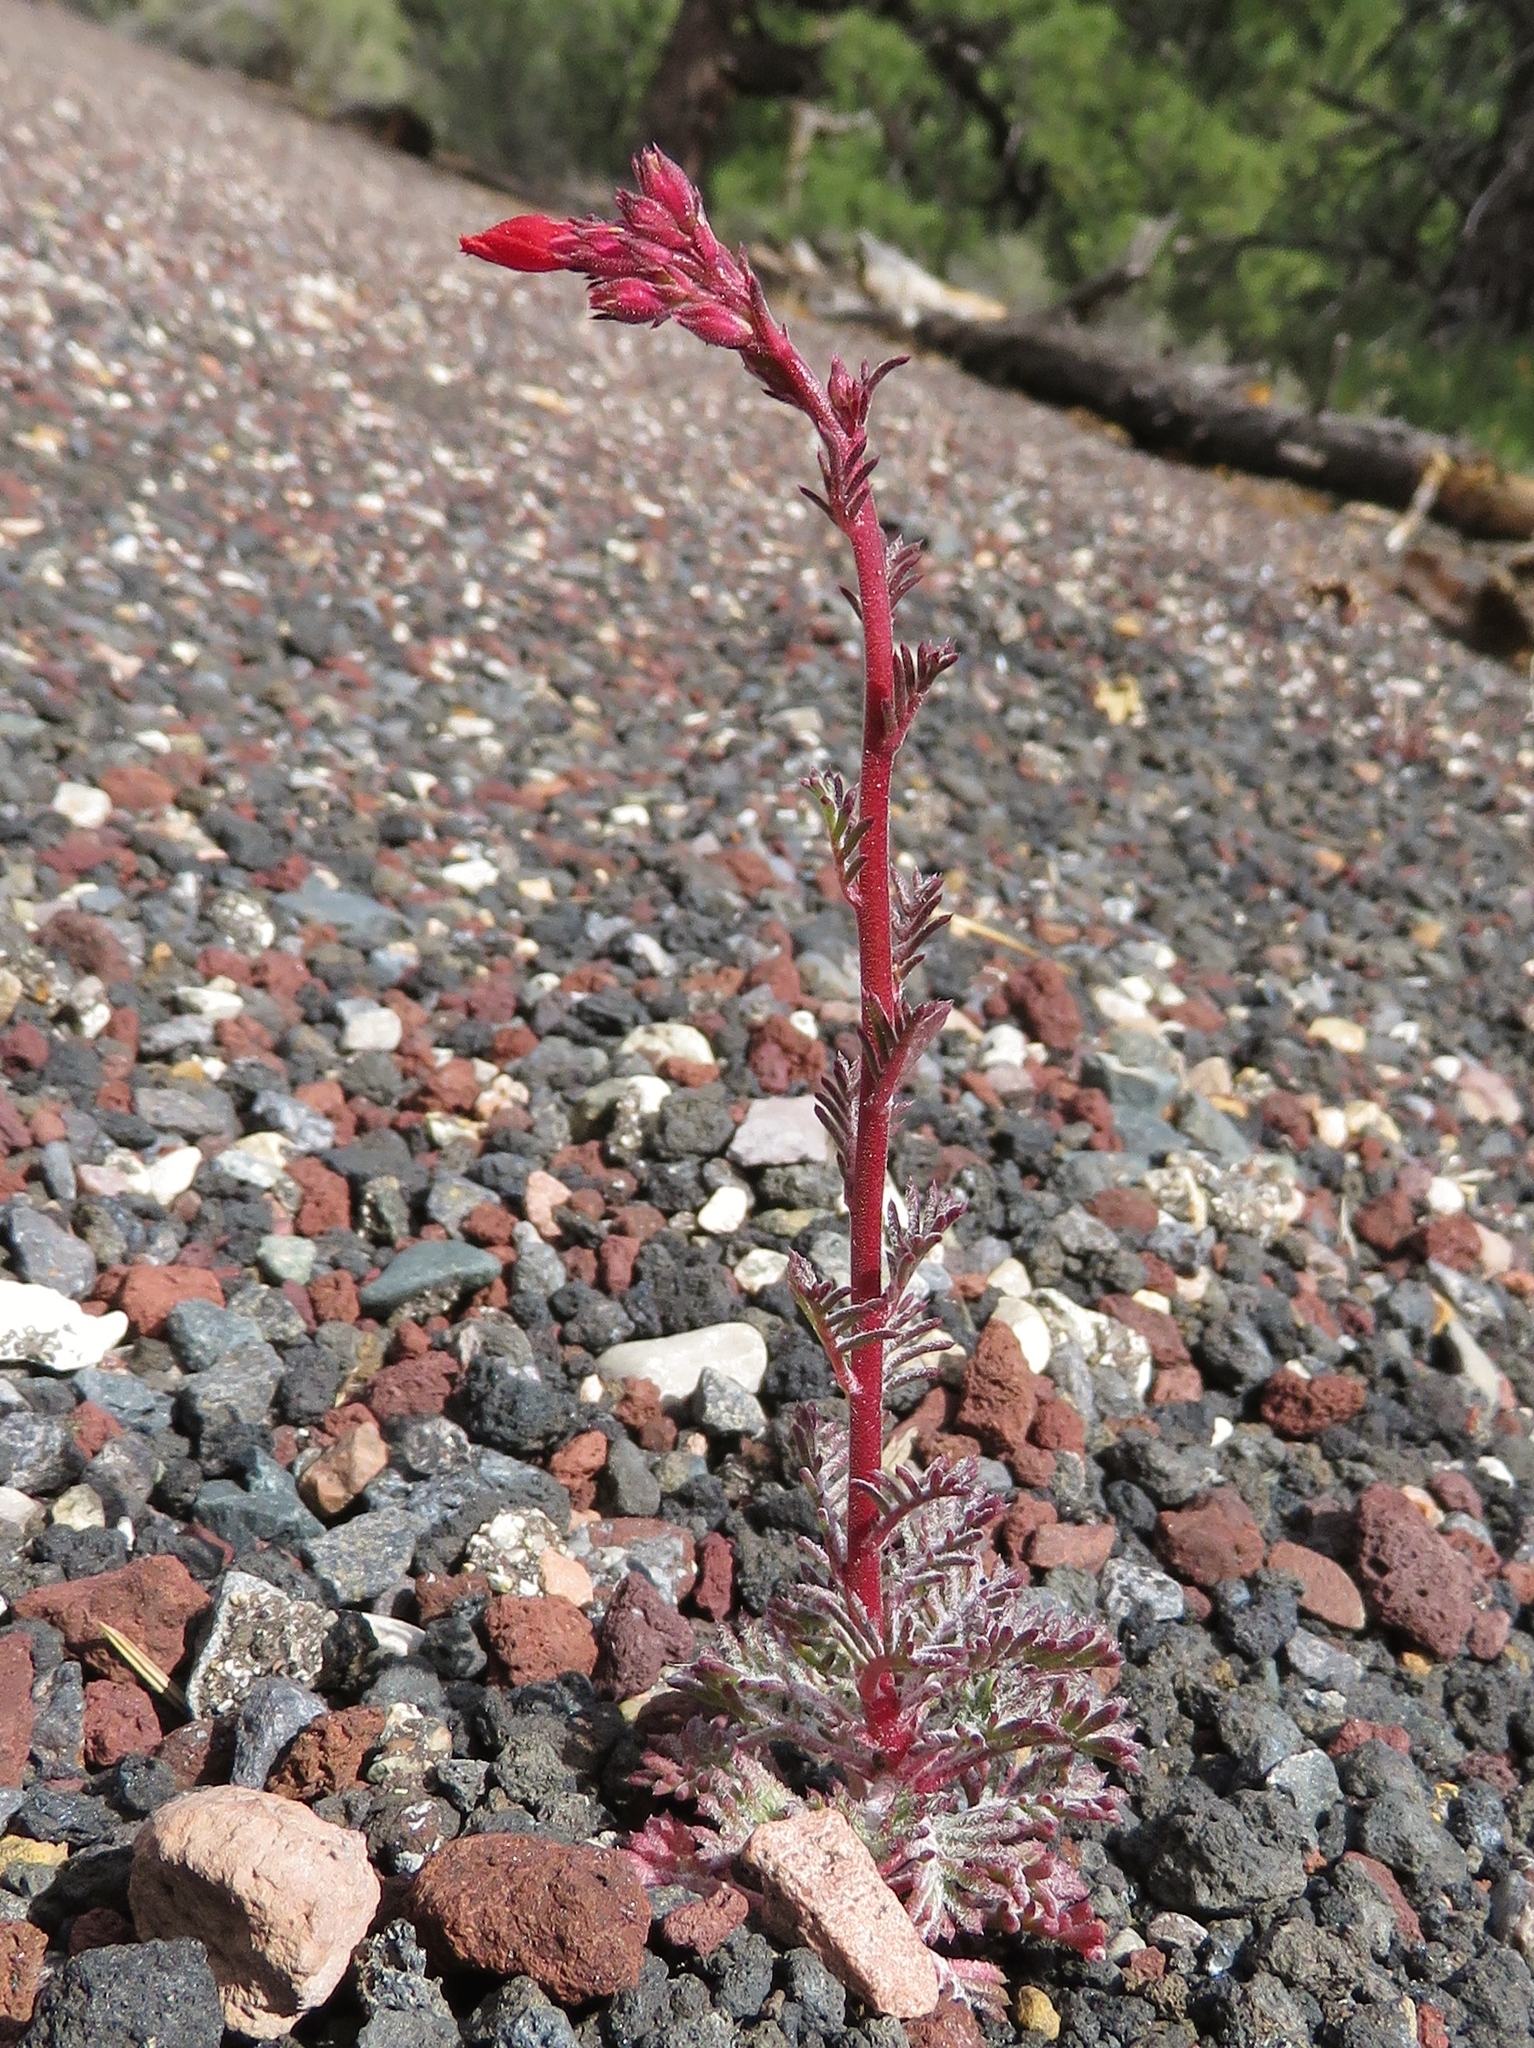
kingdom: Plantae
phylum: Tracheophyta
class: Magnoliopsida
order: Ericales
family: Polemoniaceae
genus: Ipomopsis
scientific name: Ipomopsis arizonica
